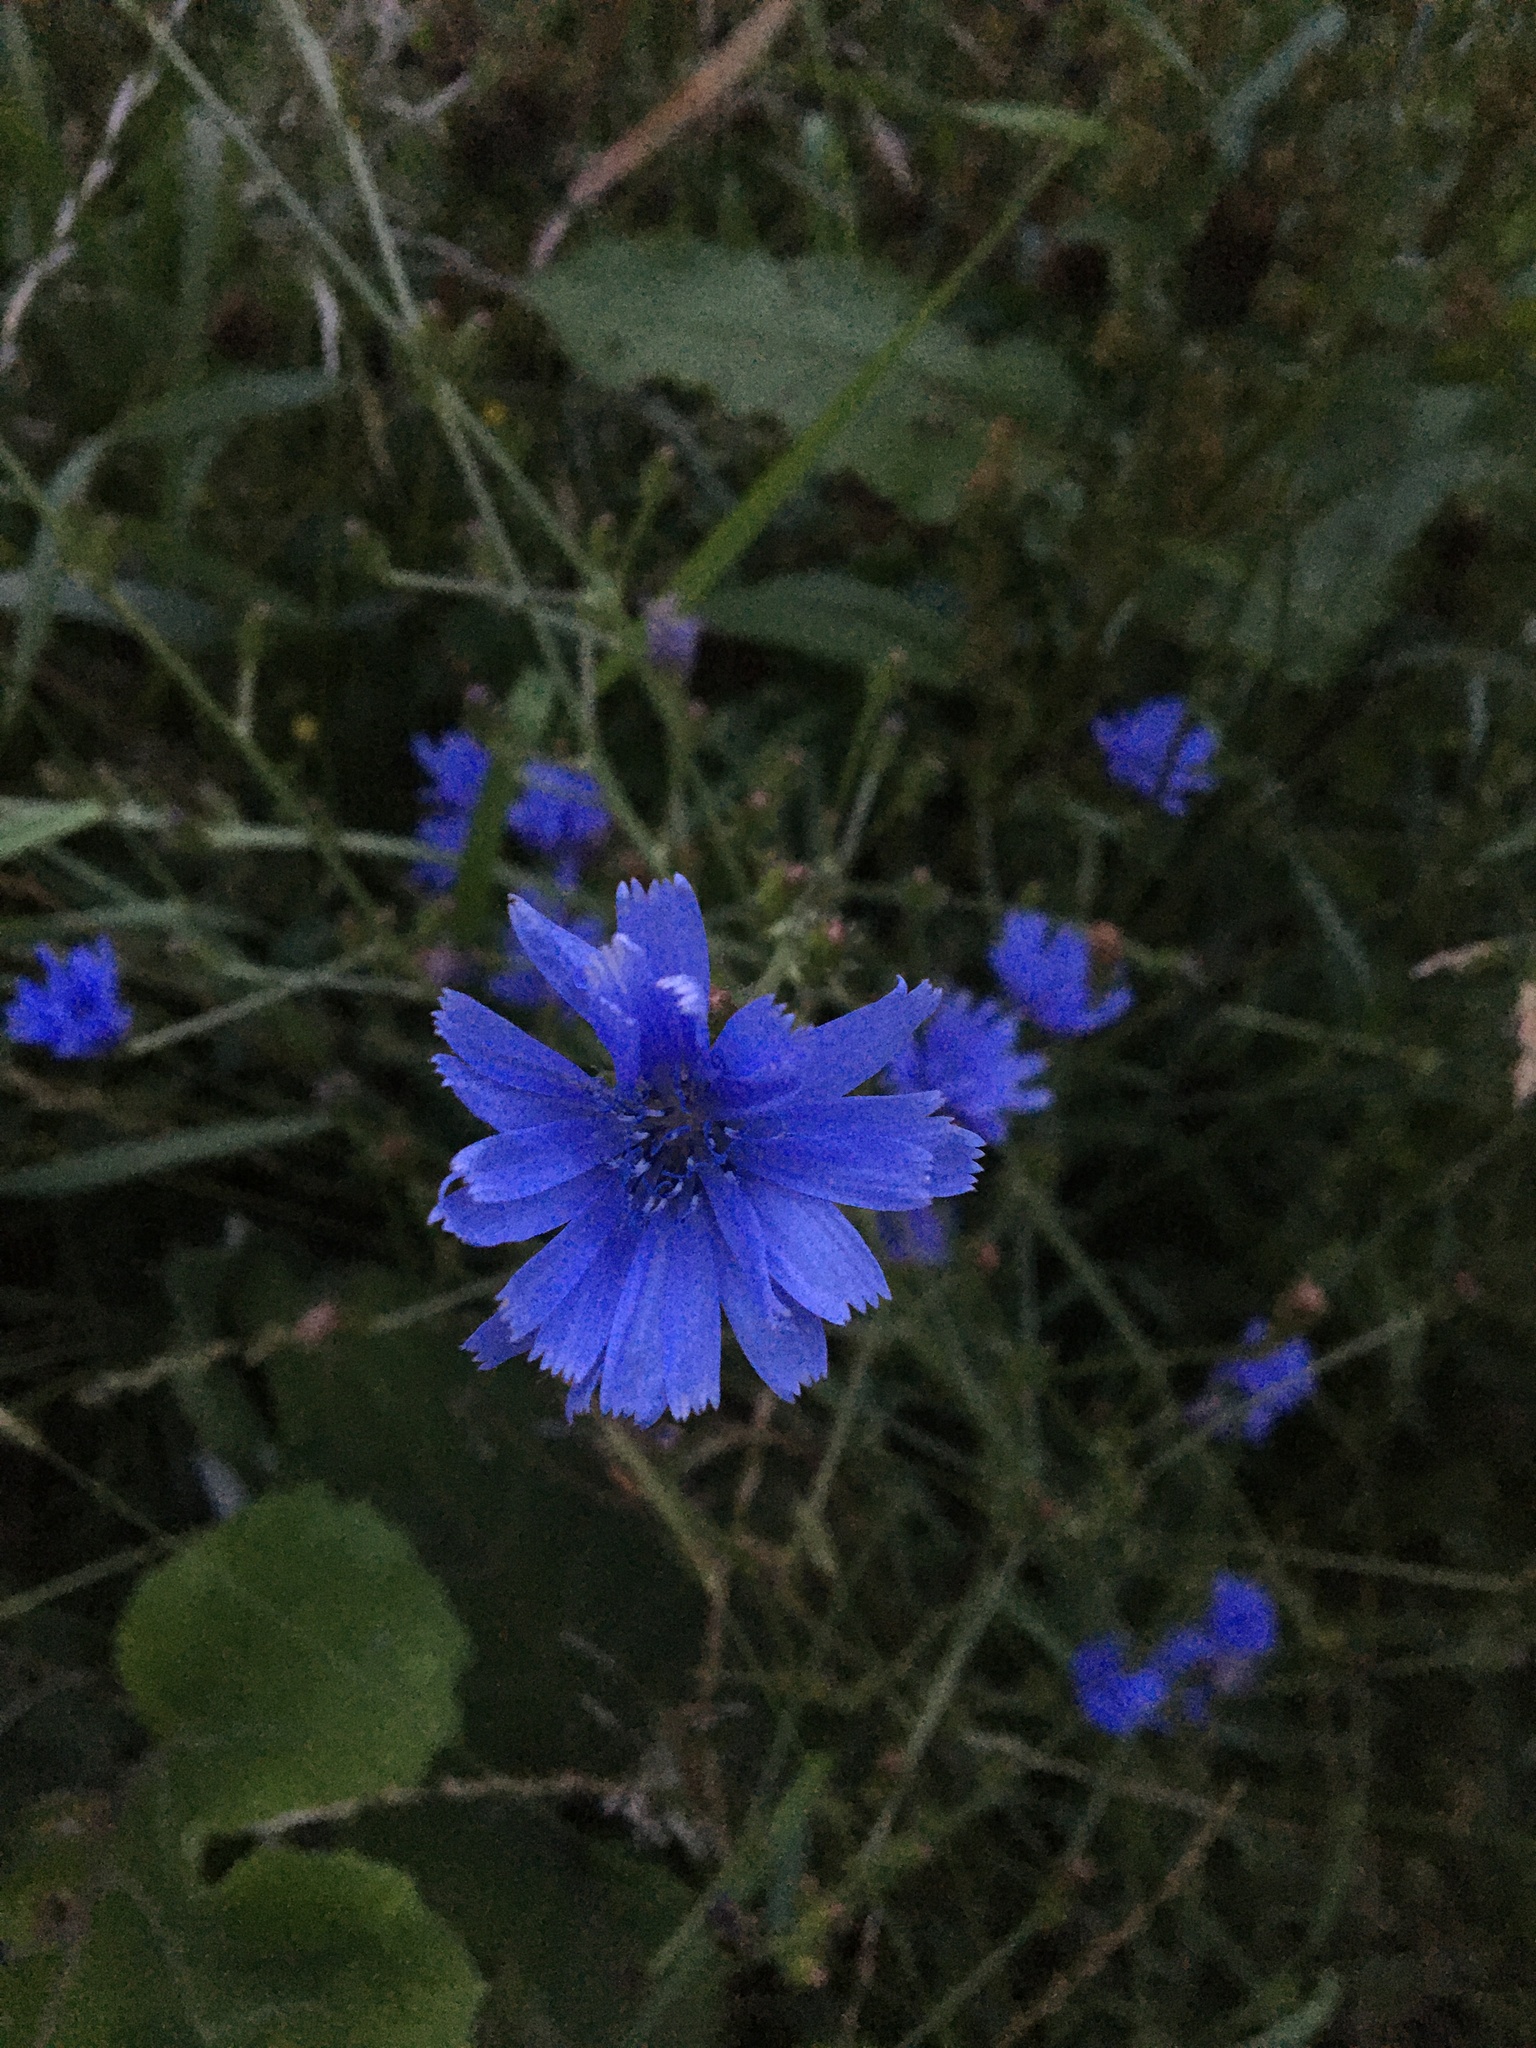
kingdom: Plantae
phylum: Tracheophyta
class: Magnoliopsida
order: Asterales
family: Asteraceae
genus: Cichorium
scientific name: Cichorium intybus
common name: Chicory
